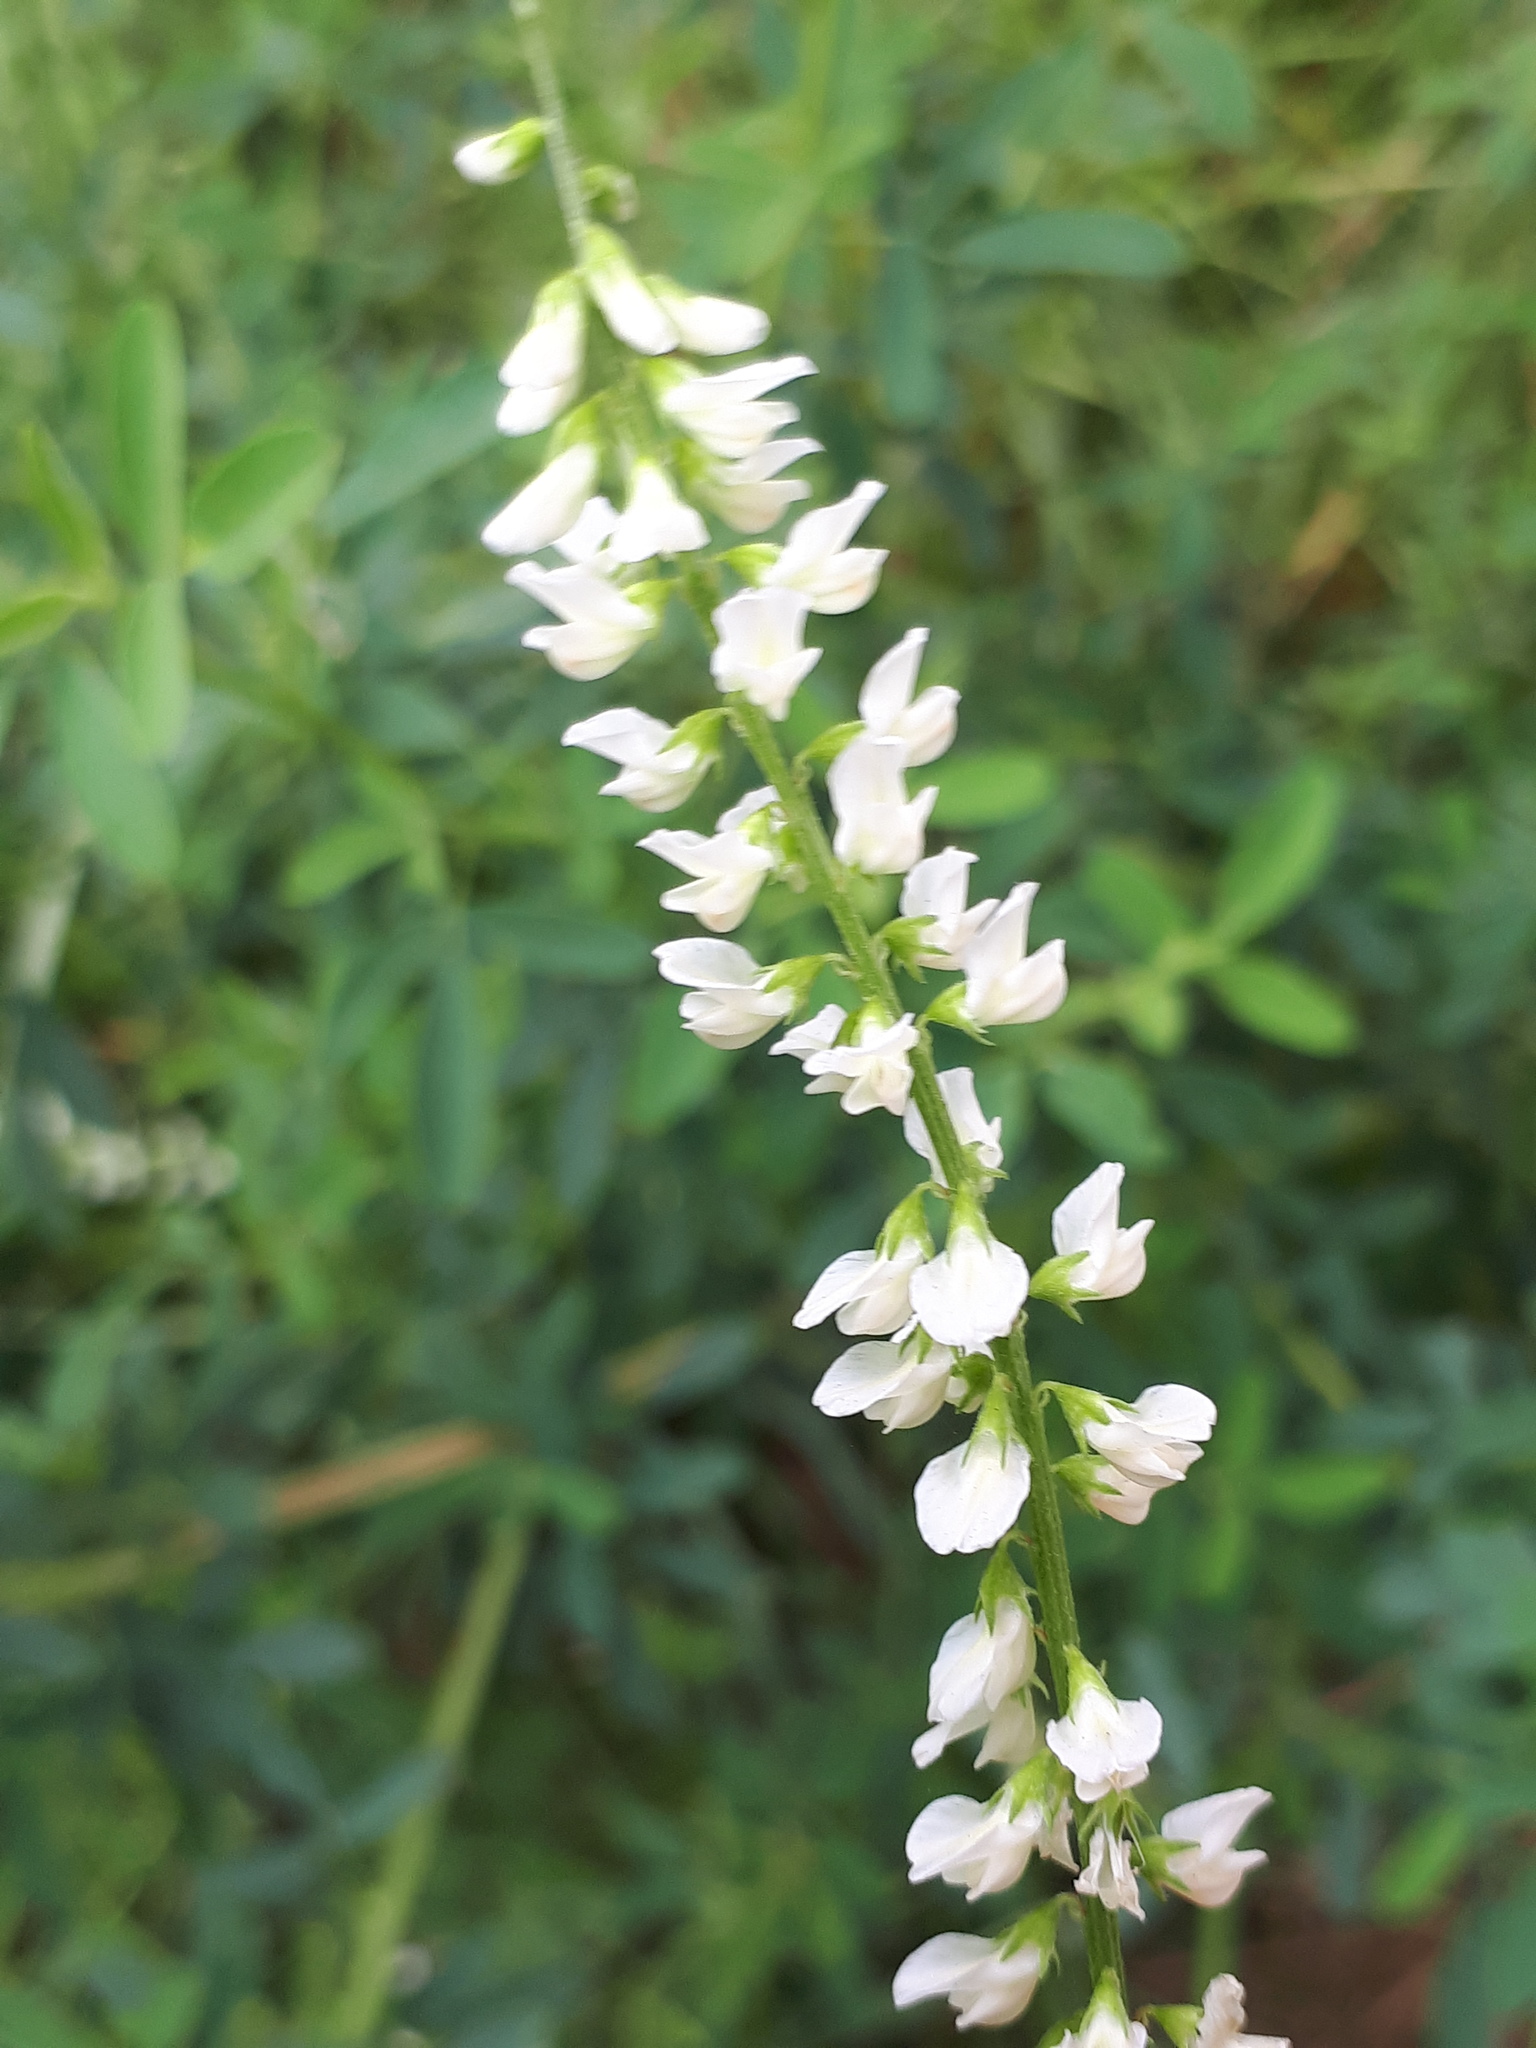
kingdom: Plantae
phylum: Tracheophyta
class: Magnoliopsida
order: Fabales
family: Fabaceae
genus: Melilotus
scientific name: Melilotus albus
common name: White melilot
